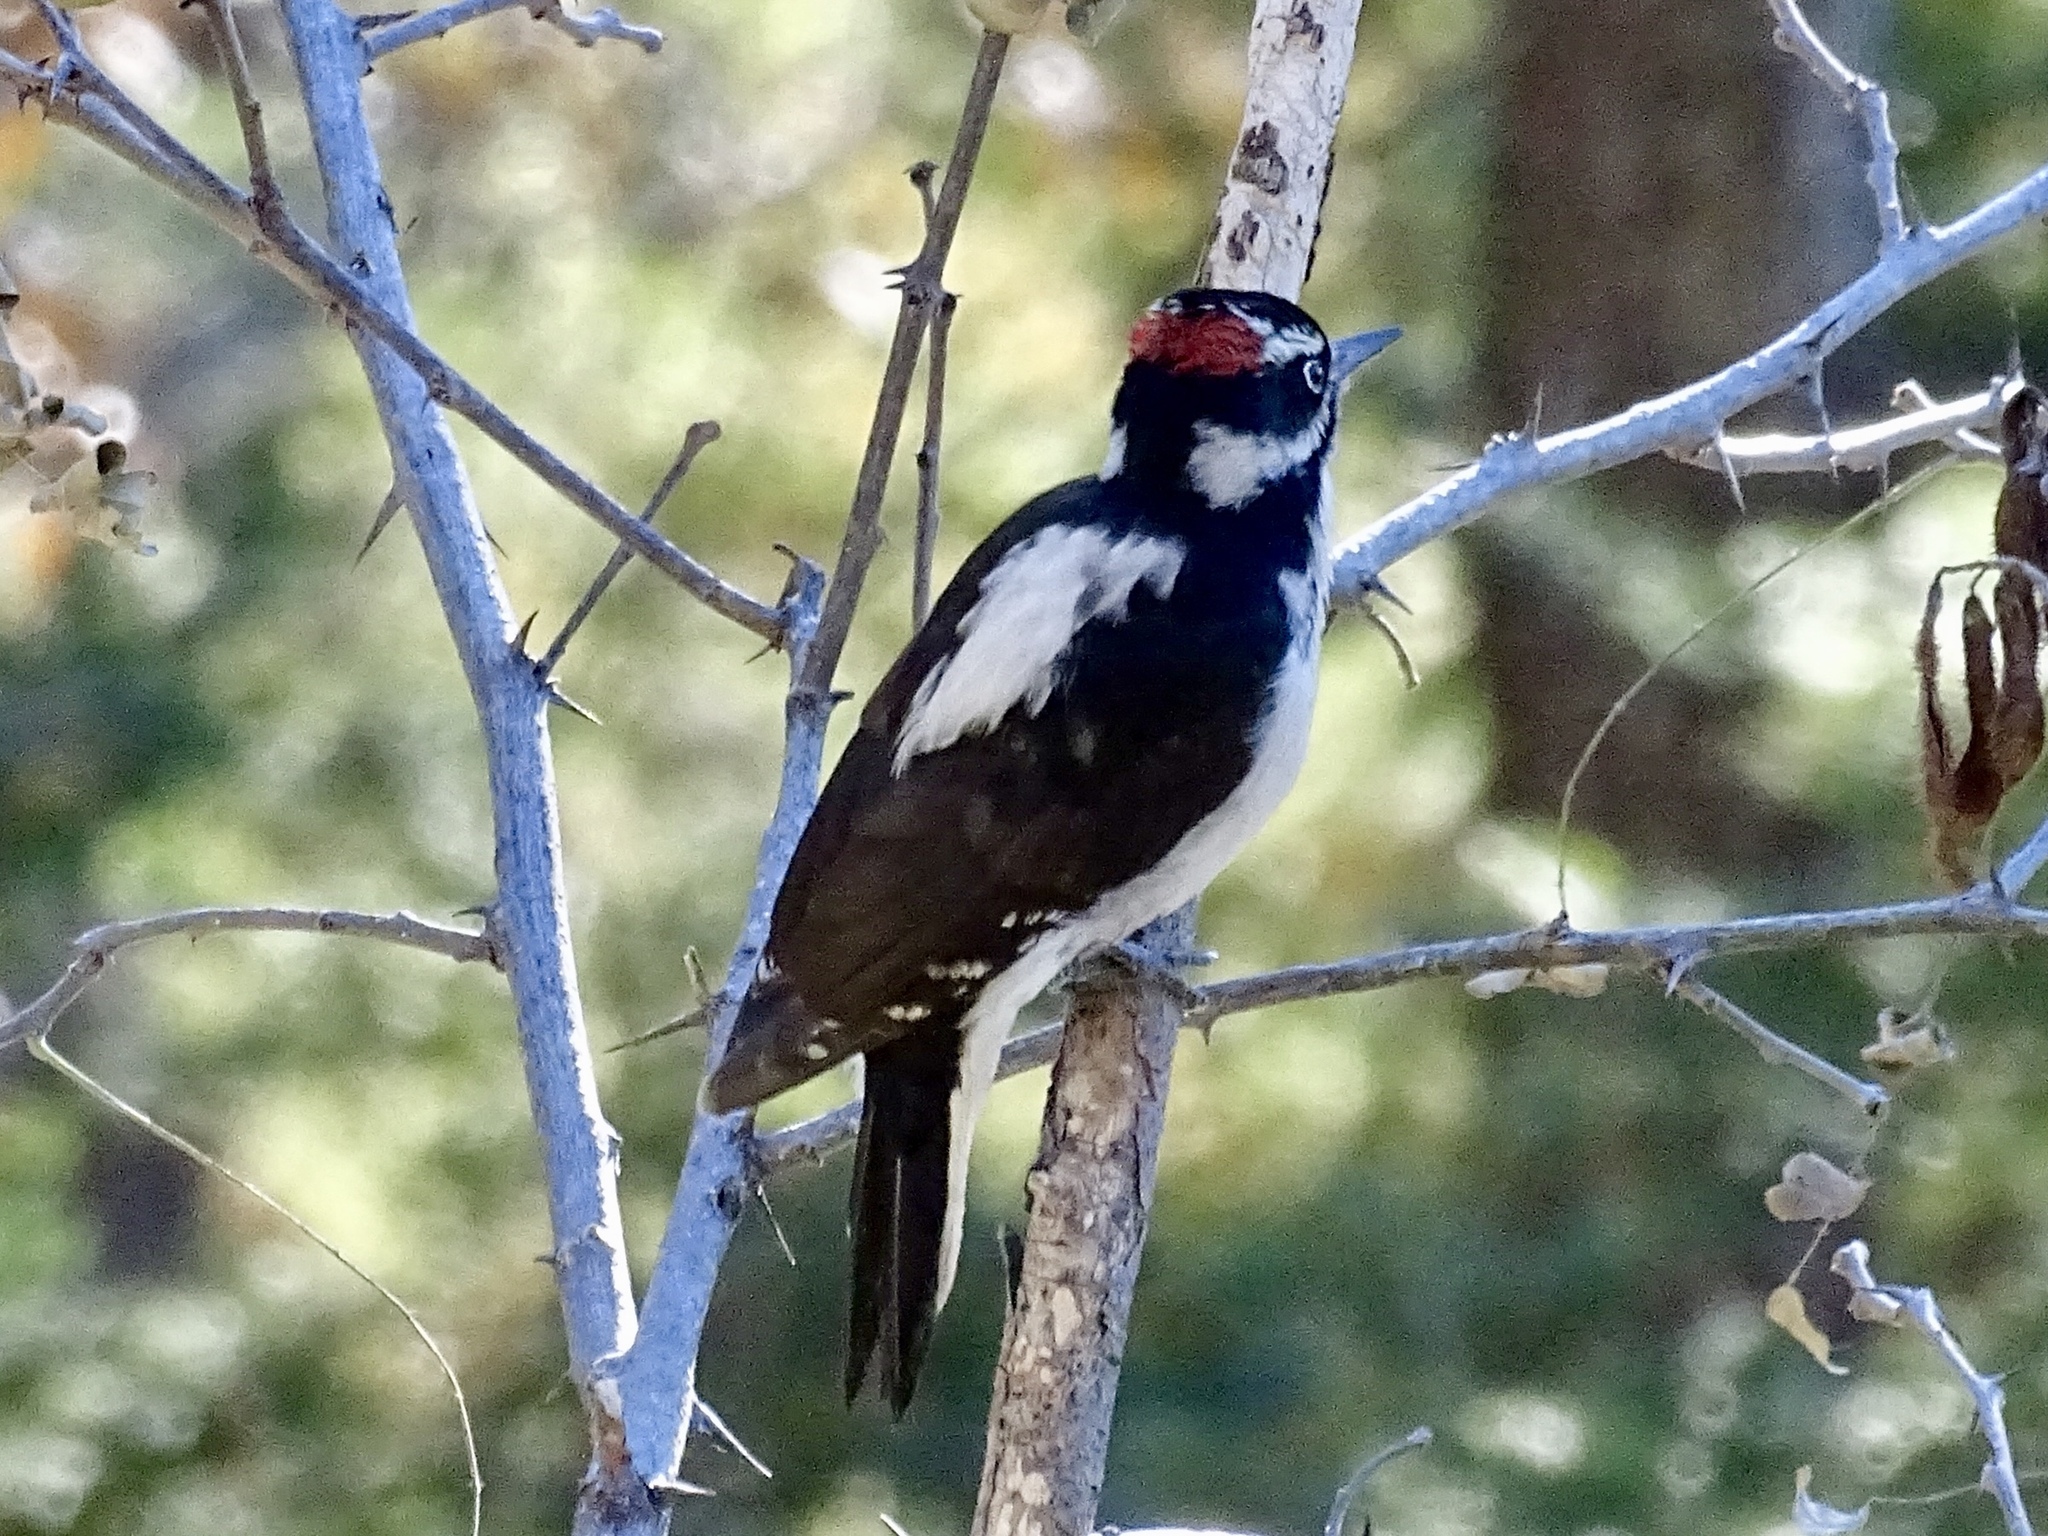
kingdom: Animalia
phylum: Chordata
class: Aves
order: Piciformes
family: Picidae
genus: Leuconotopicus
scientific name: Leuconotopicus villosus
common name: Hairy woodpecker
